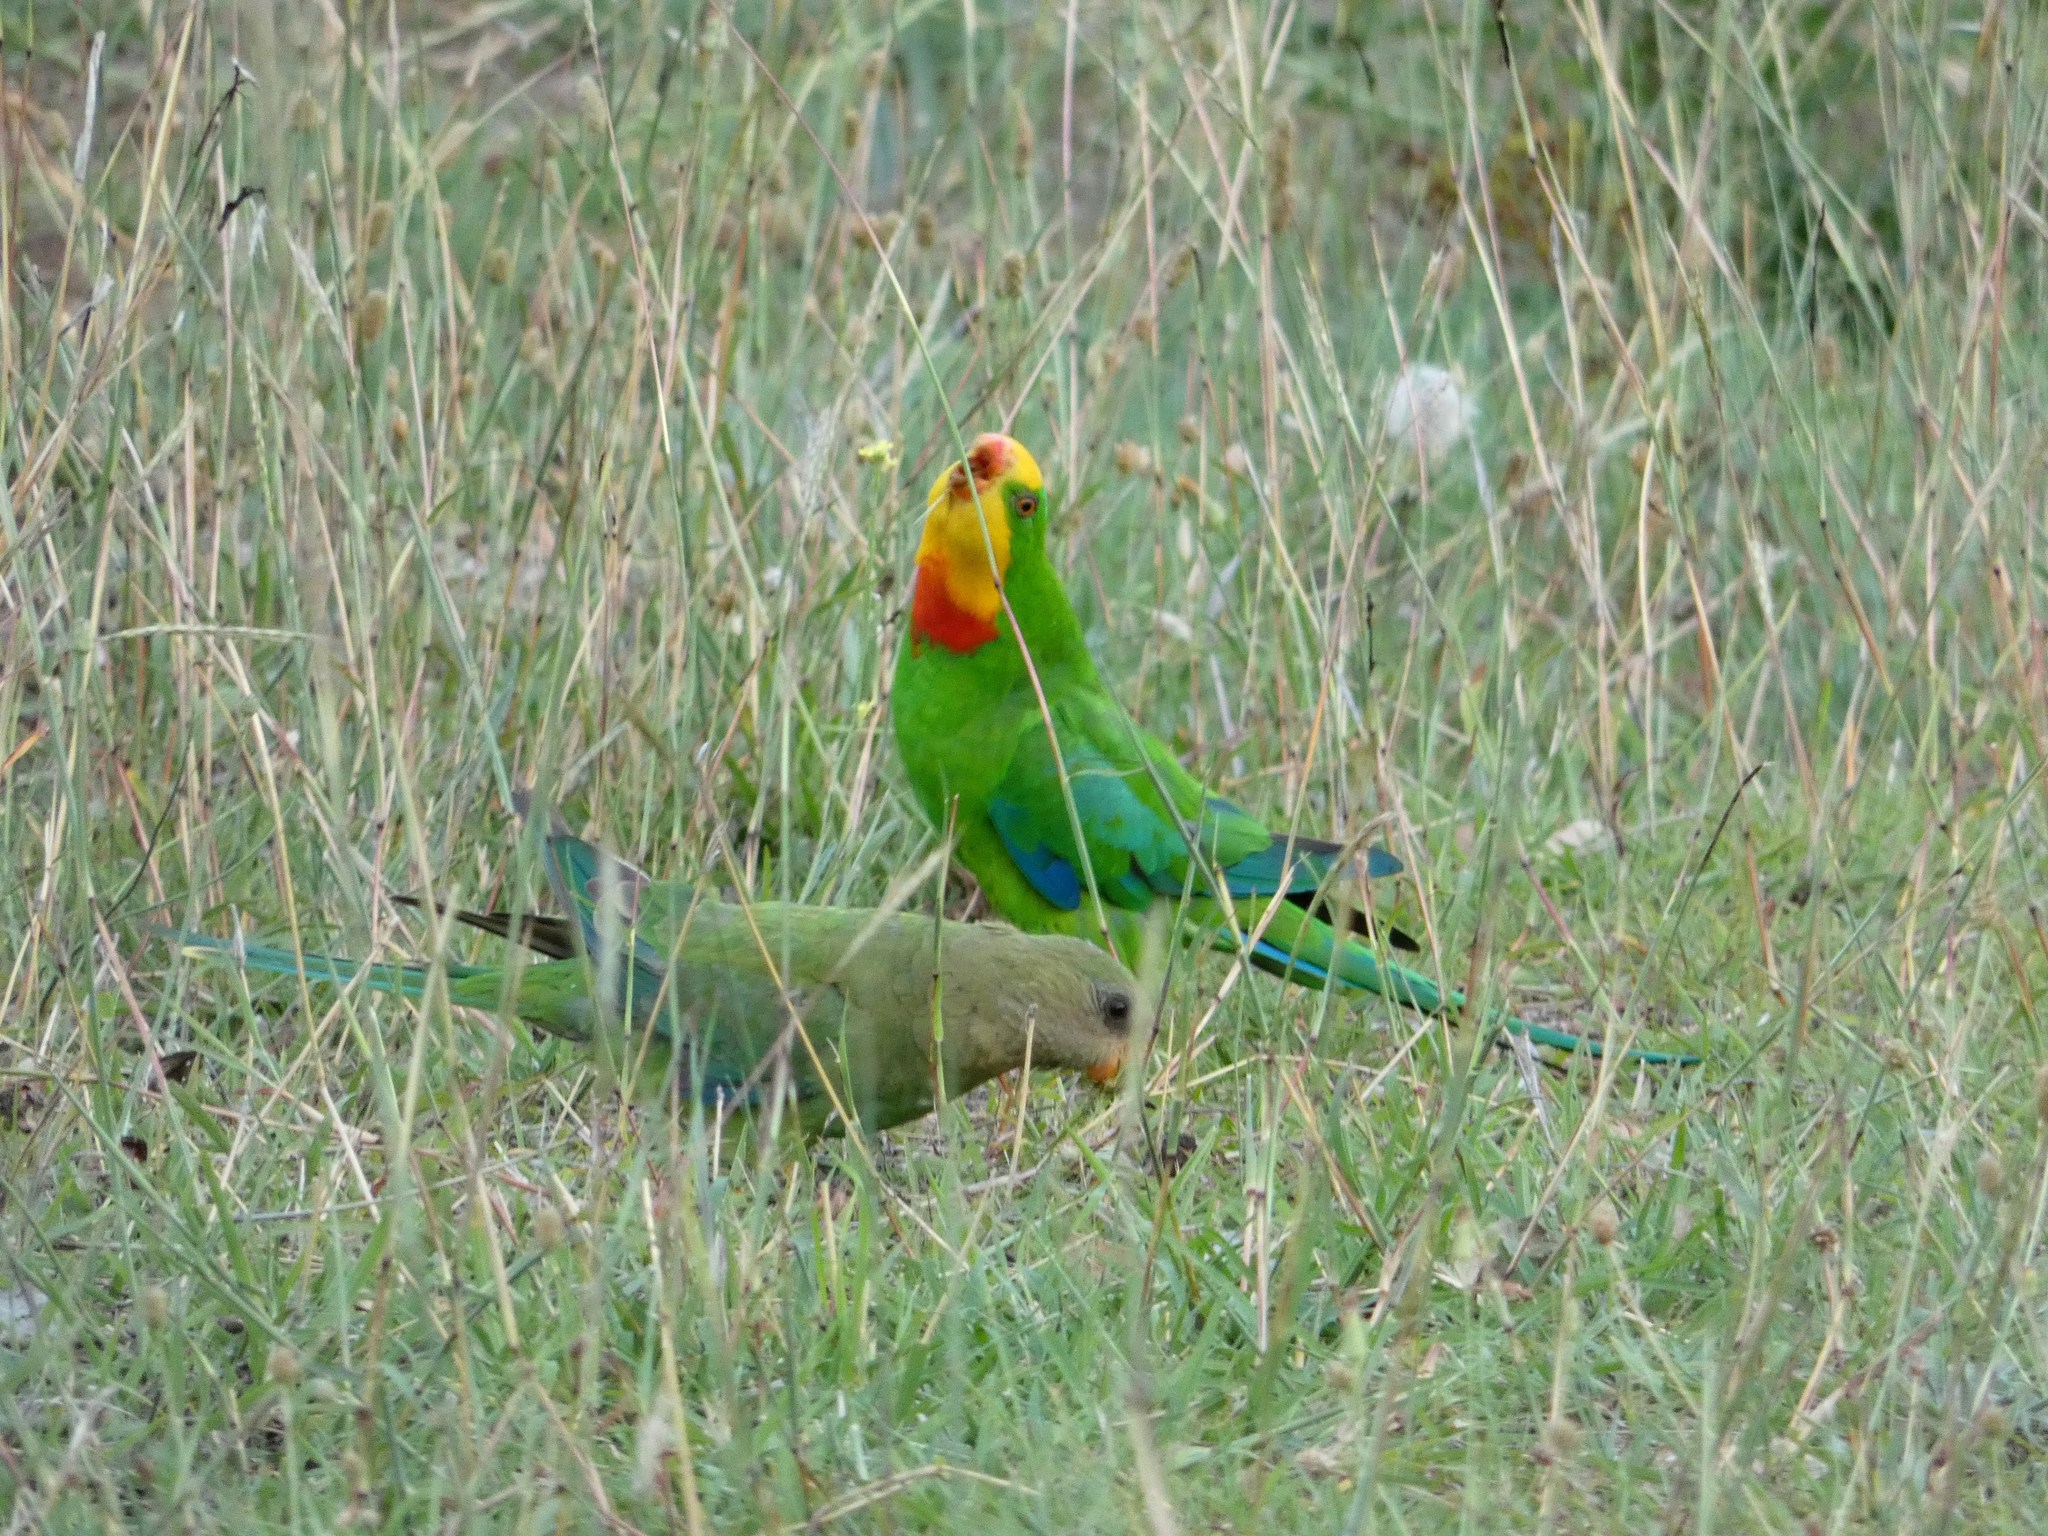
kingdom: Animalia
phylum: Chordata
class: Aves
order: Psittaciformes
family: Psittacidae
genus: Polytelis
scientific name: Polytelis swainsonii
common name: Superb parrot
